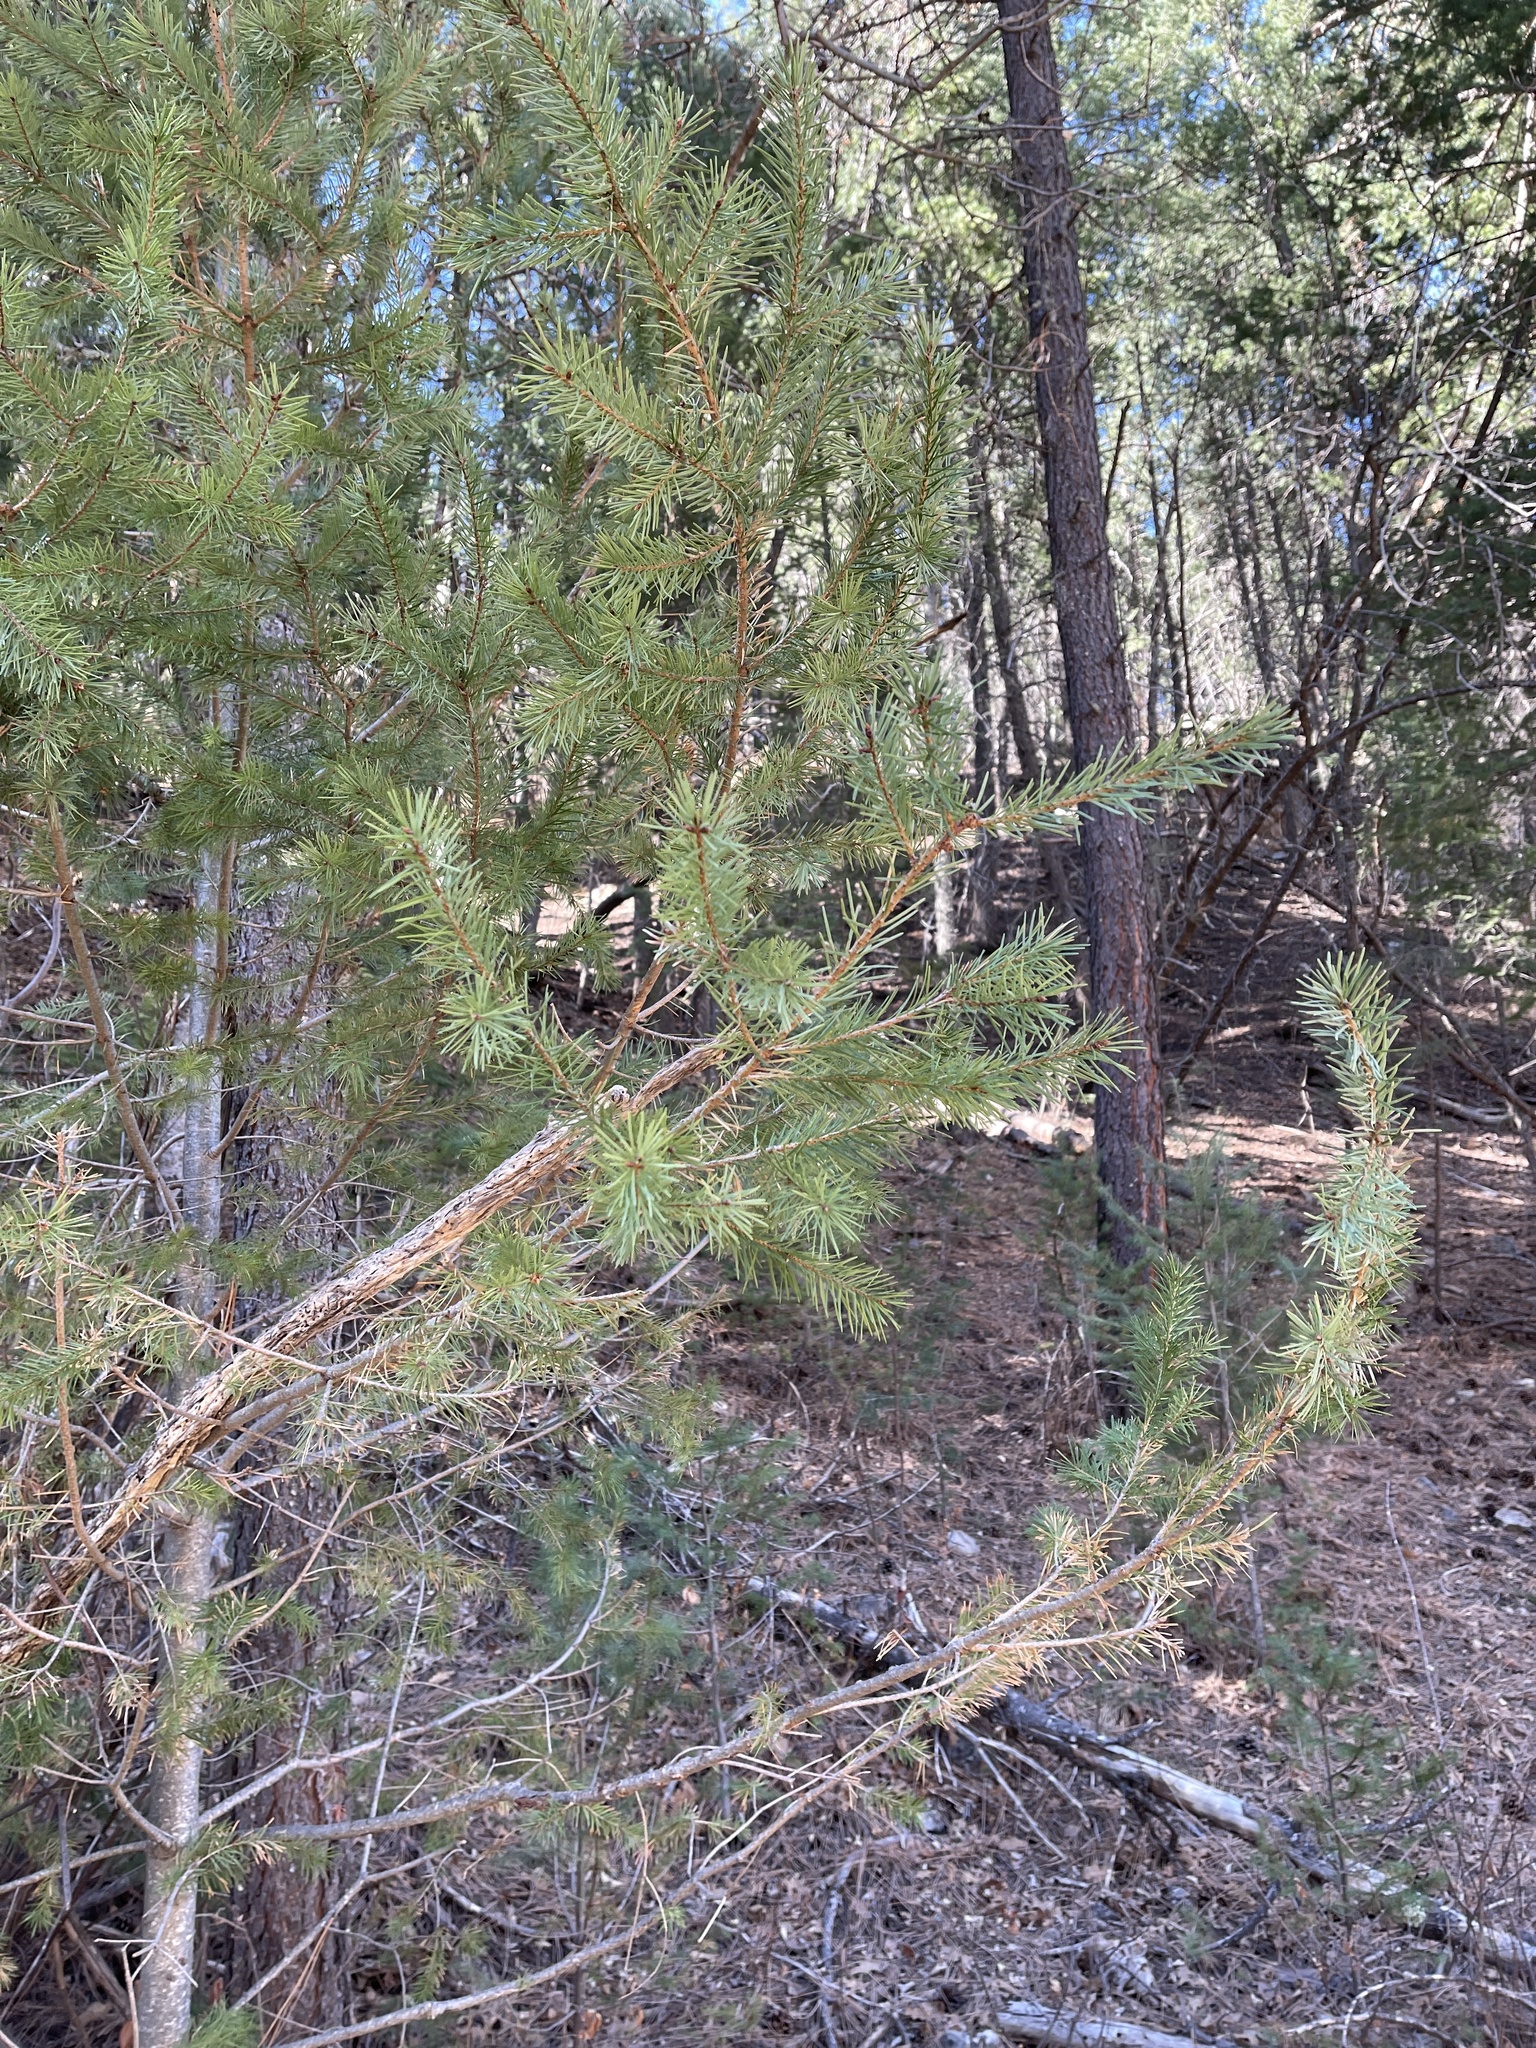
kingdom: Plantae
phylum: Tracheophyta
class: Pinopsida
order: Pinales
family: Pinaceae
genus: Pseudotsuga
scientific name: Pseudotsuga menziesii
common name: Douglas fir
